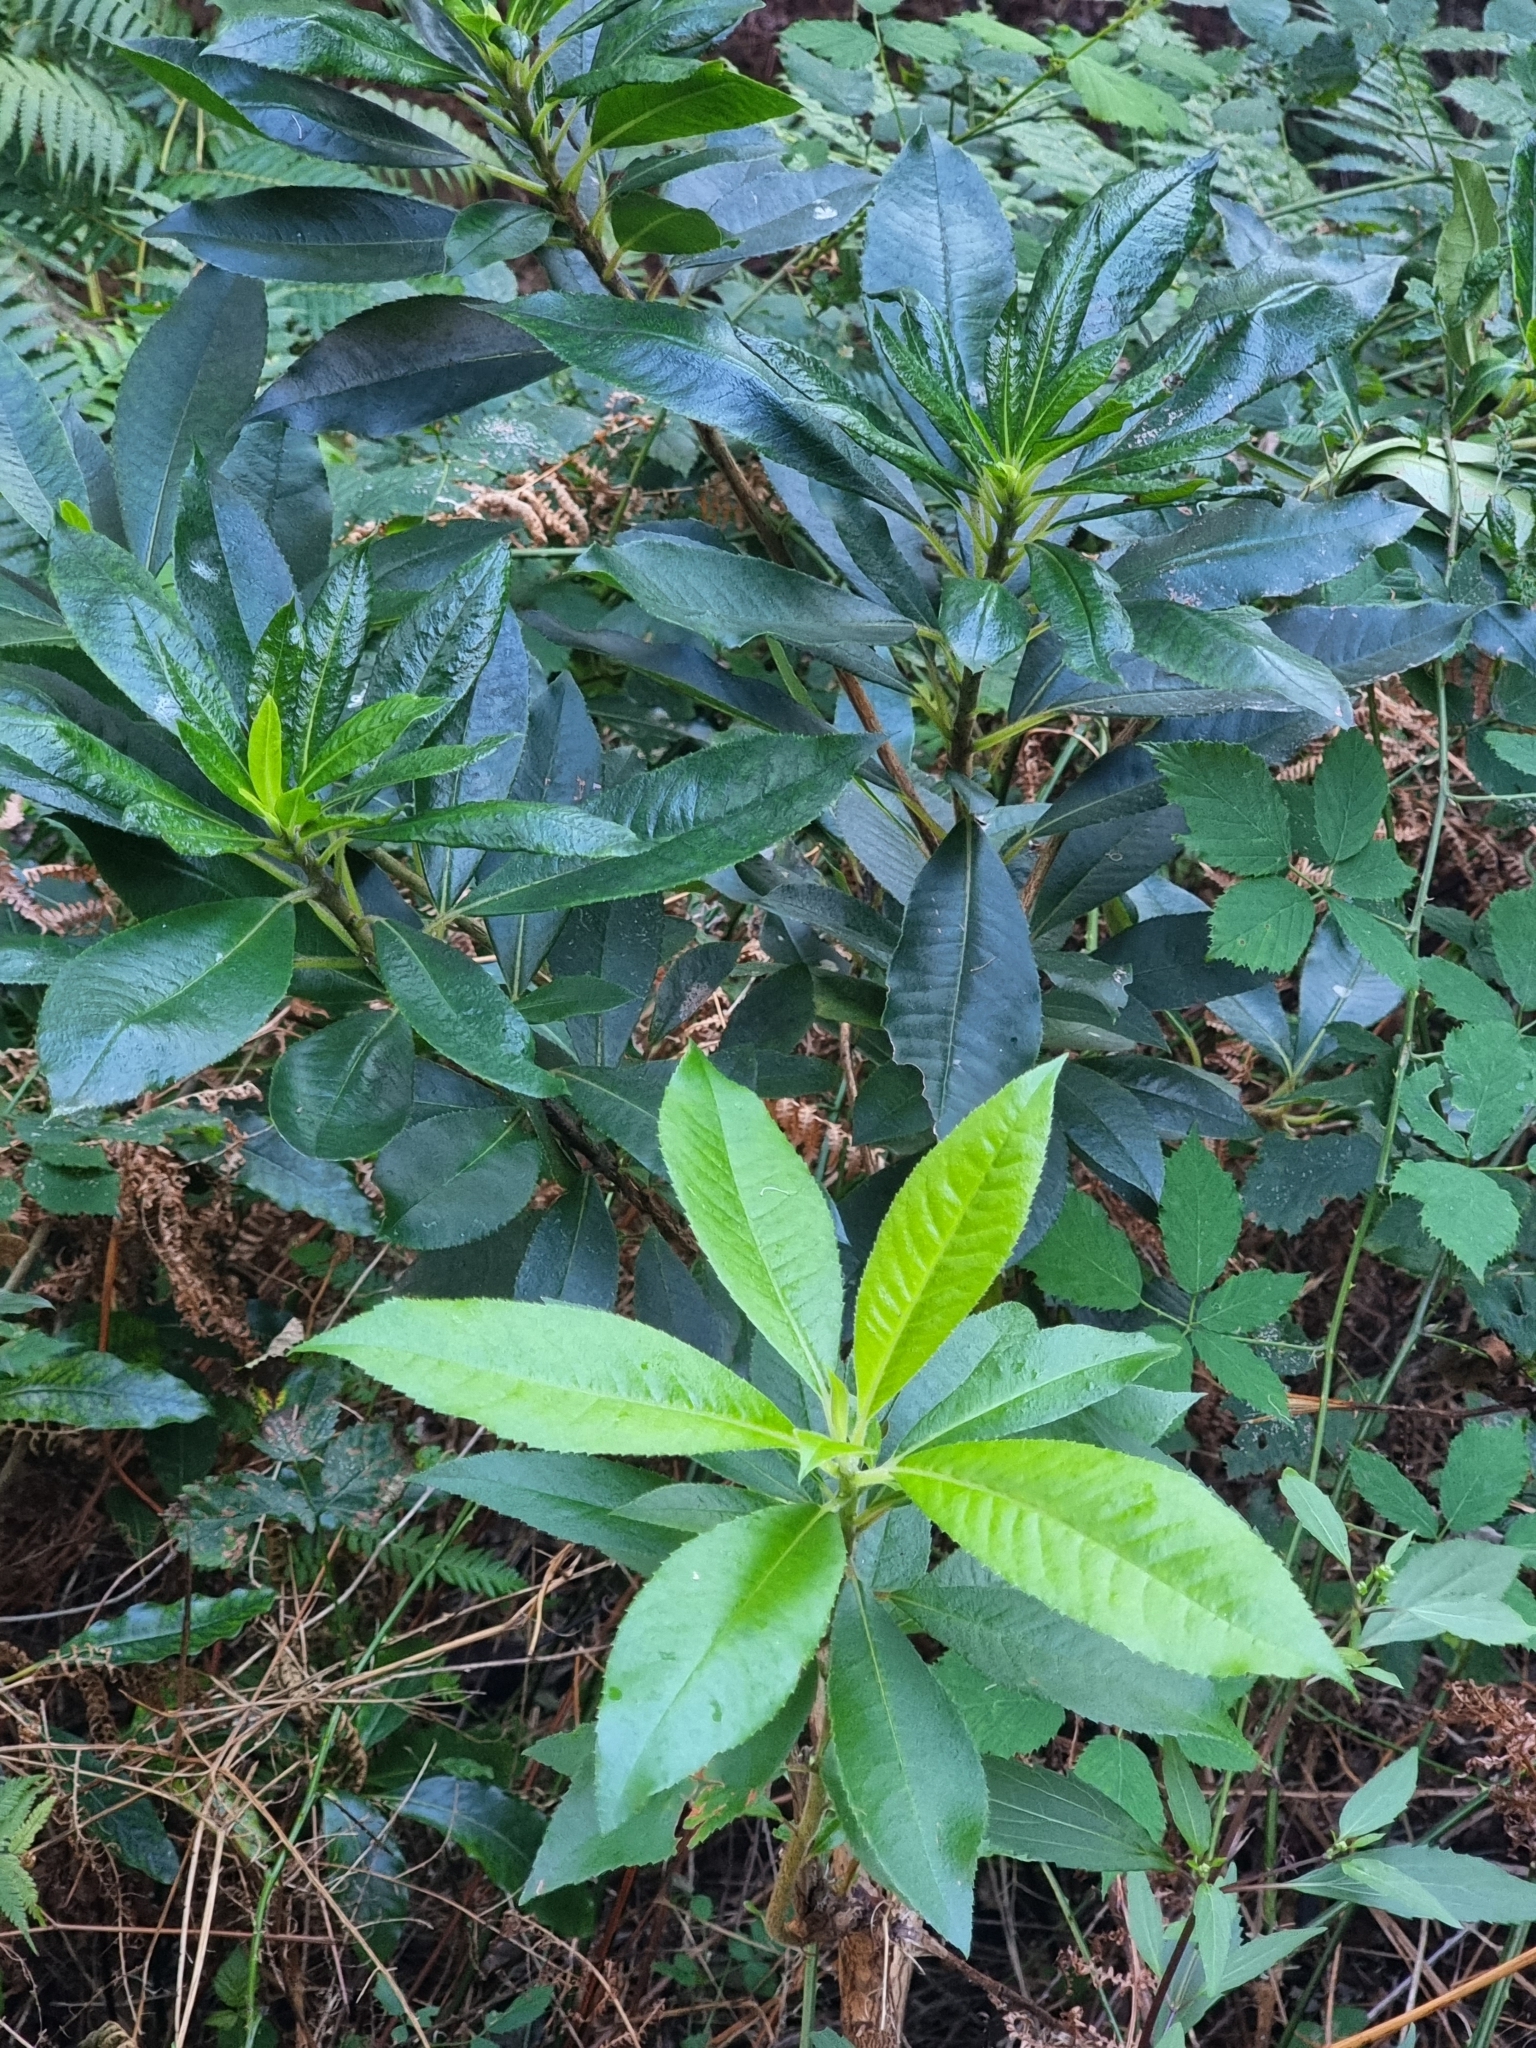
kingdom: Plantae
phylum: Tracheophyta
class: Magnoliopsida
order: Ericales
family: Clethraceae
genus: Clethra
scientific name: Clethra arborea
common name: Lily-of-the-valley-tree
